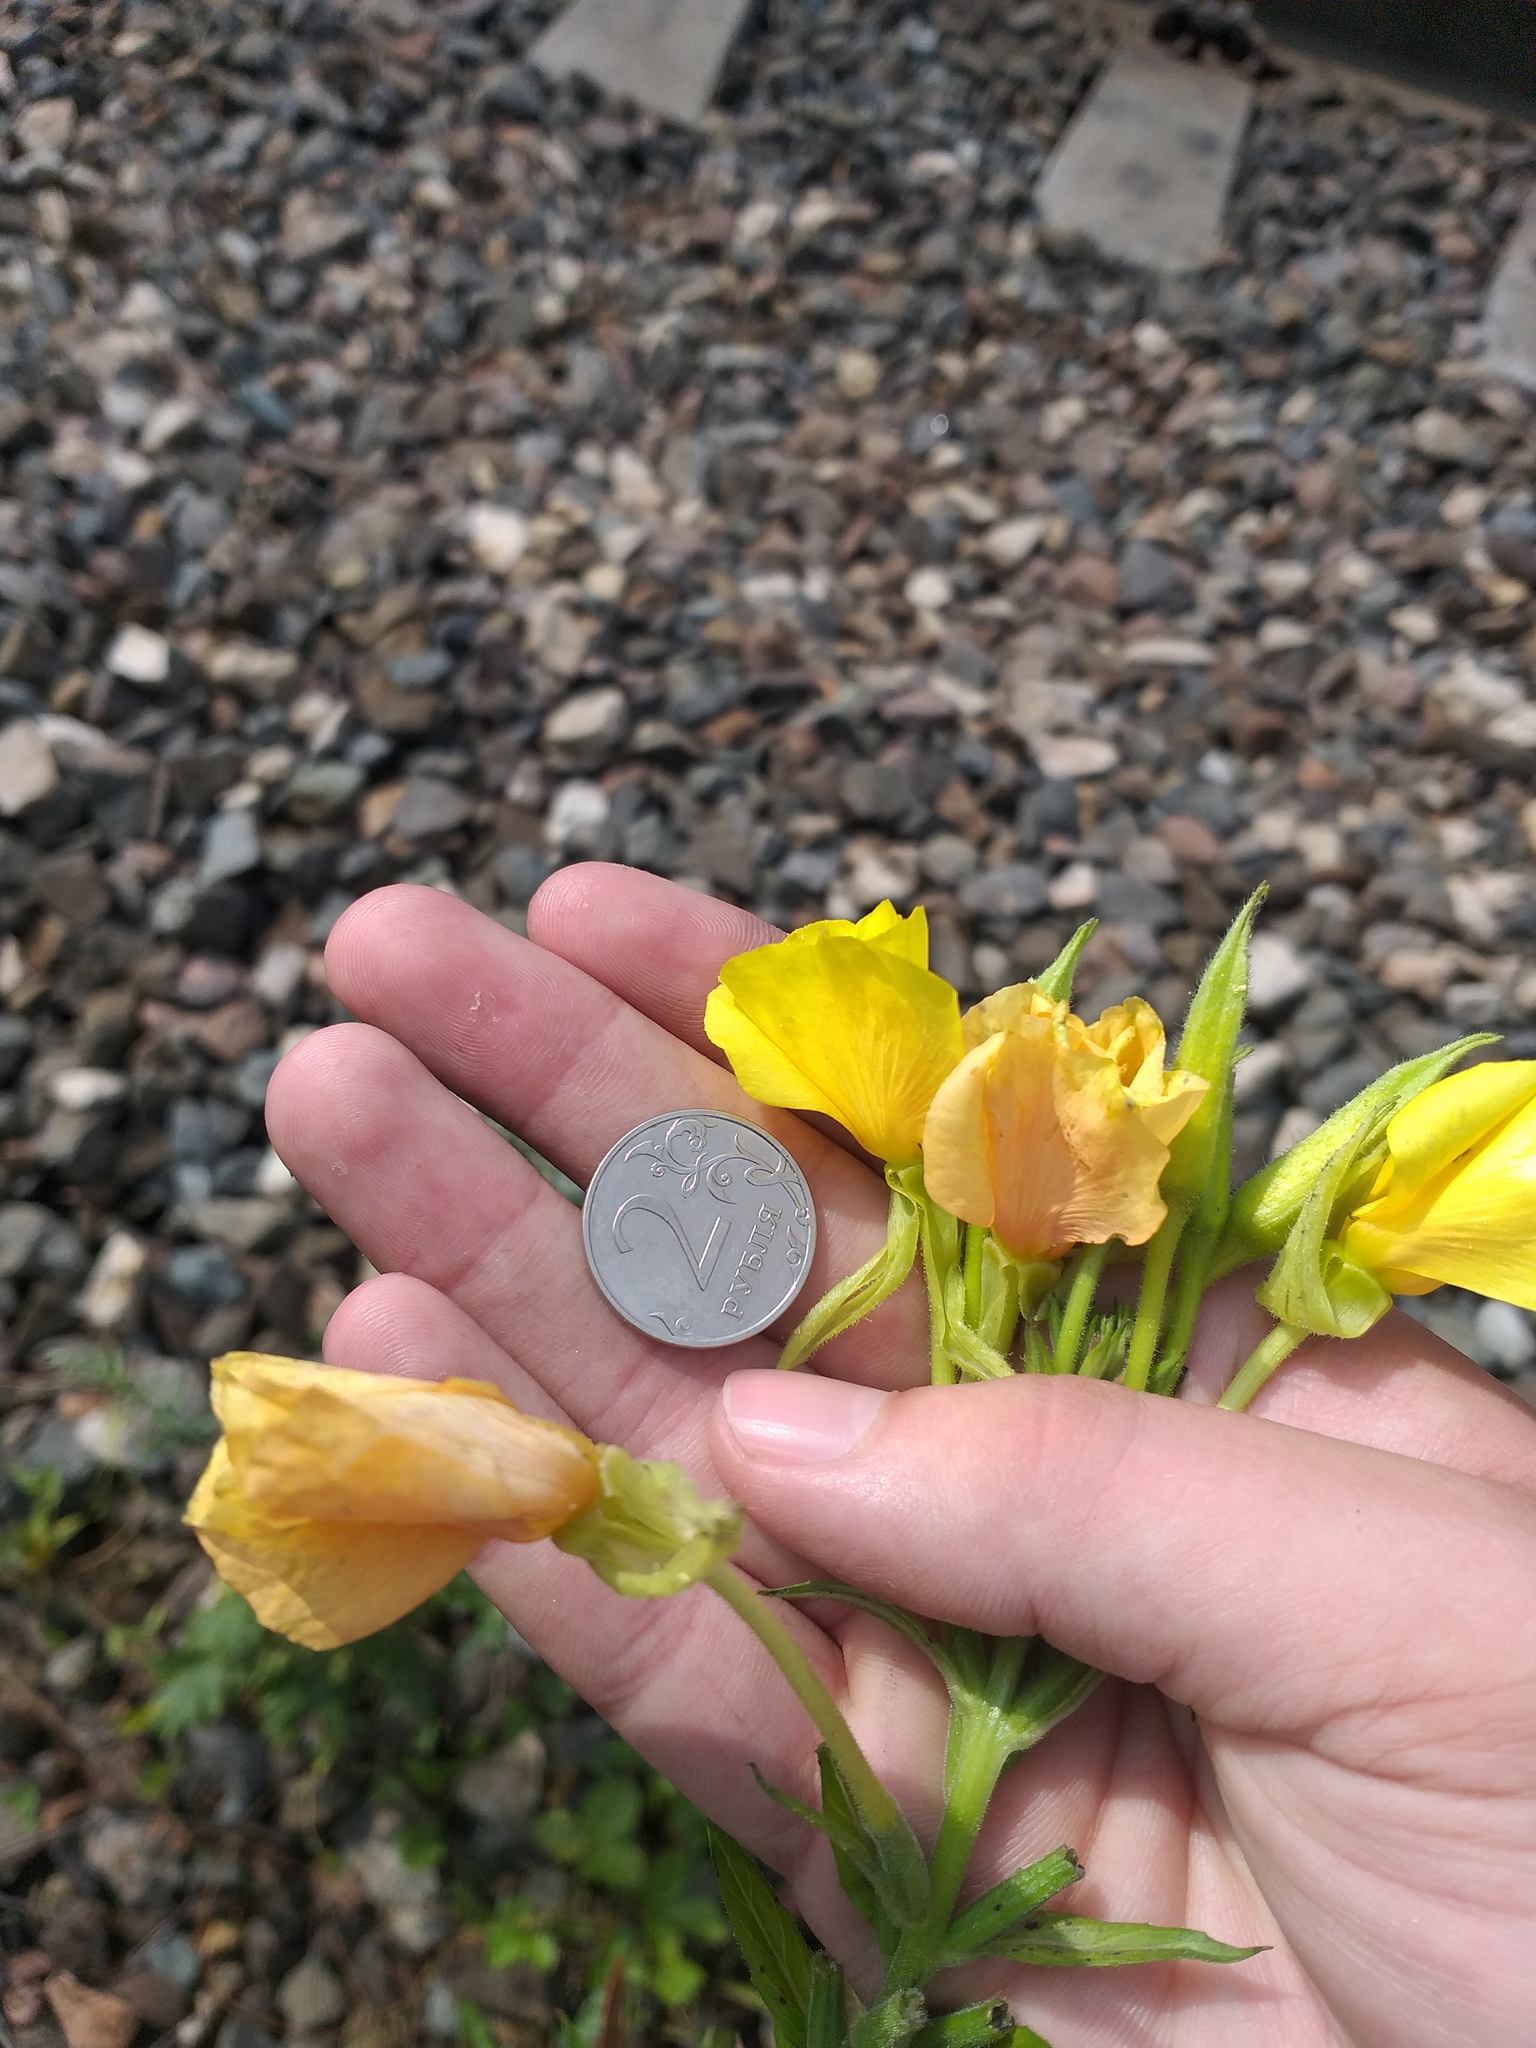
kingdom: Plantae
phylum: Tracheophyta
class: Magnoliopsida
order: Myrtales
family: Onagraceae
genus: Oenothera
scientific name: Oenothera biennis
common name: Common evening-primrose
